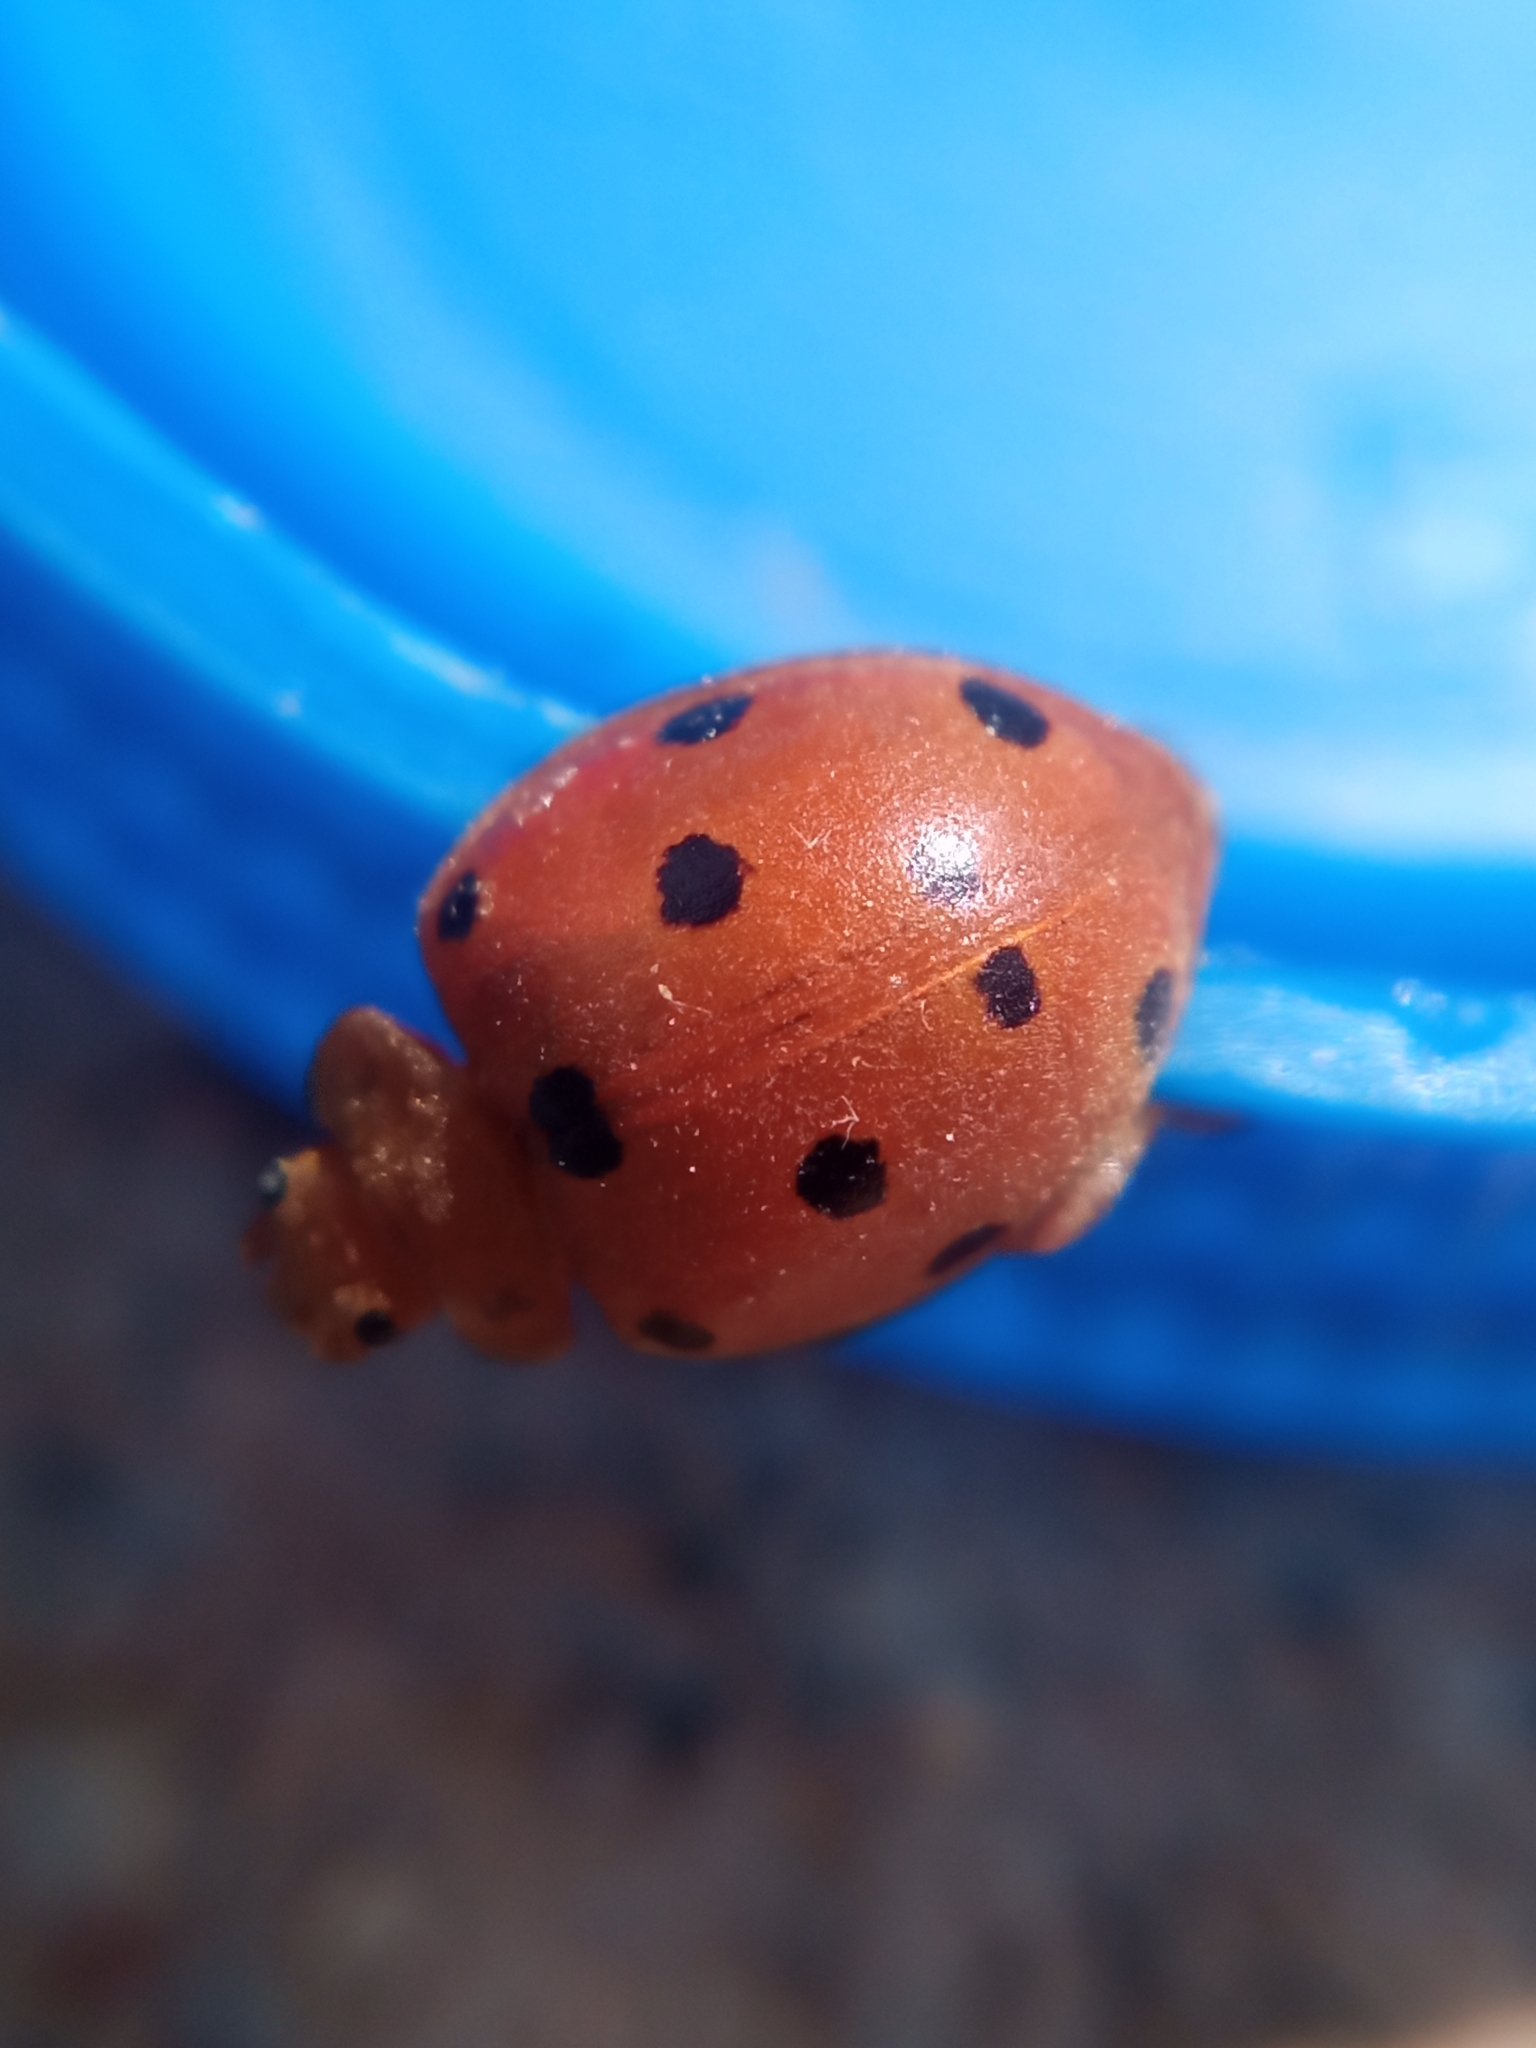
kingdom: Animalia
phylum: Arthropoda
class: Insecta
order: Coleoptera
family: Coccinellidae
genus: Henosepilachna
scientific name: Henosepilachna argus
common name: Bryony ladybird
